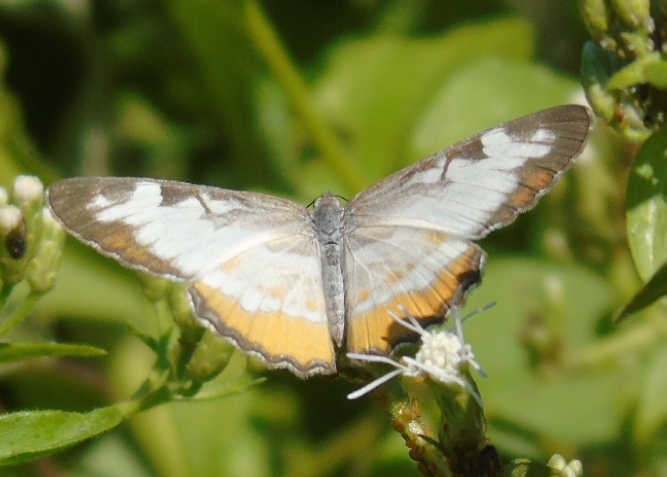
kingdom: Animalia
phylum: Arthropoda
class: Insecta
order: Lepidoptera
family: Nymphalidae
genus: Mestra
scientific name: Mestra amymone
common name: Common mestra
